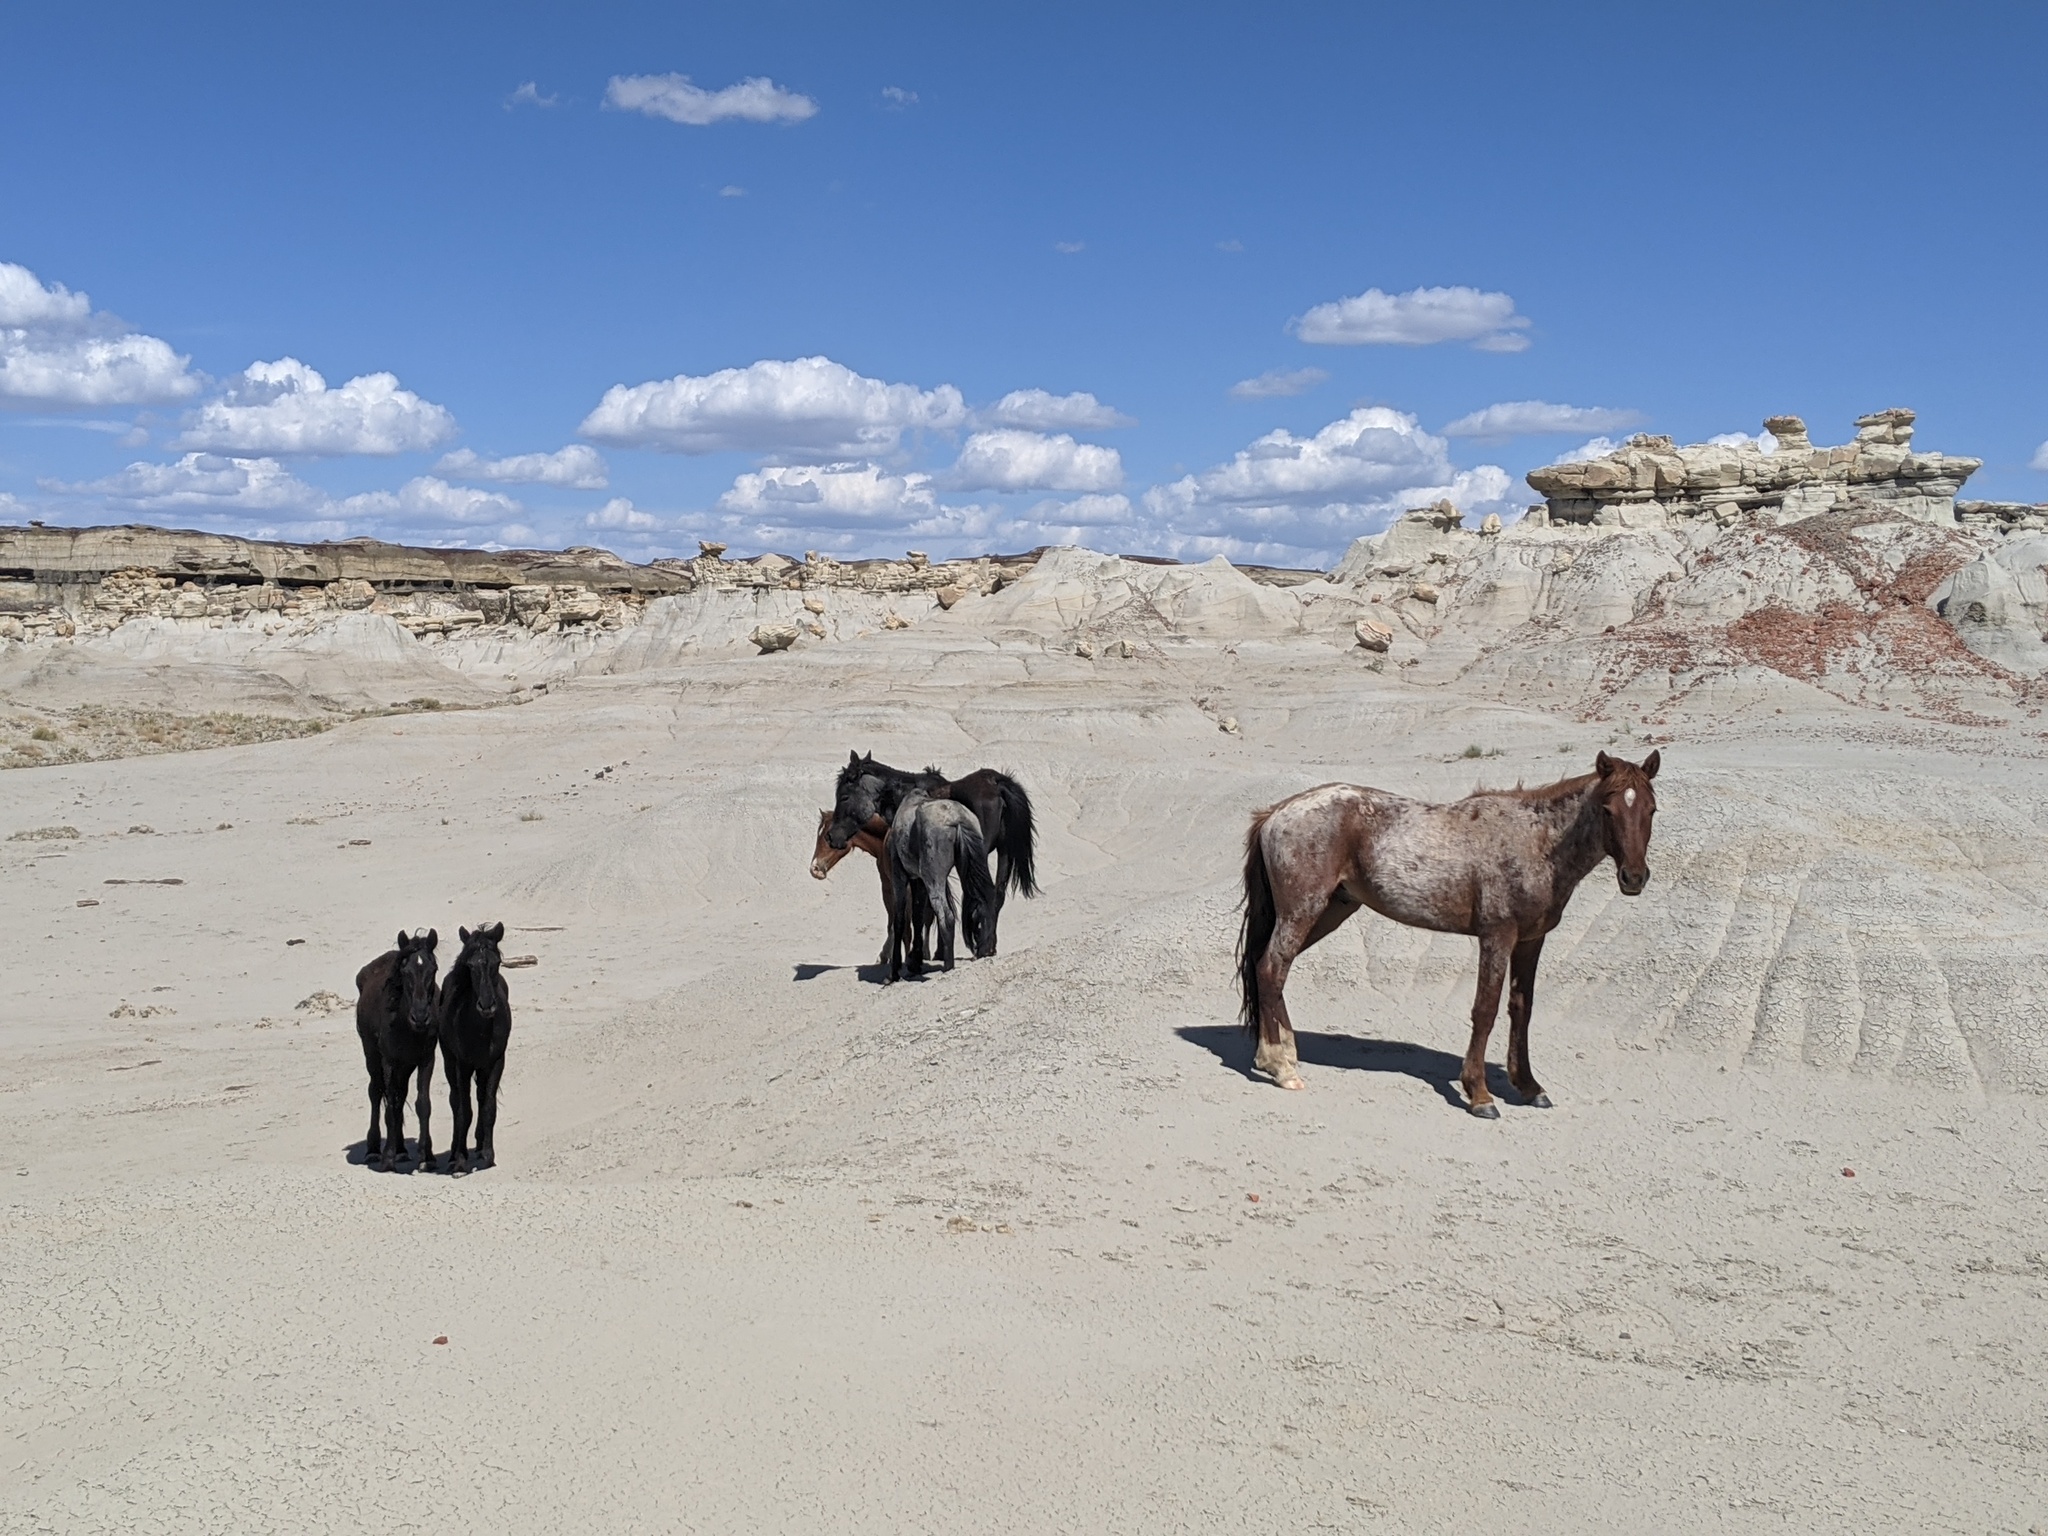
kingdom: Animalia
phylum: Chordata
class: Mammalia
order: Perissodactyla
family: Equidae
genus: Equus
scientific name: Equus caballus
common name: Horse
